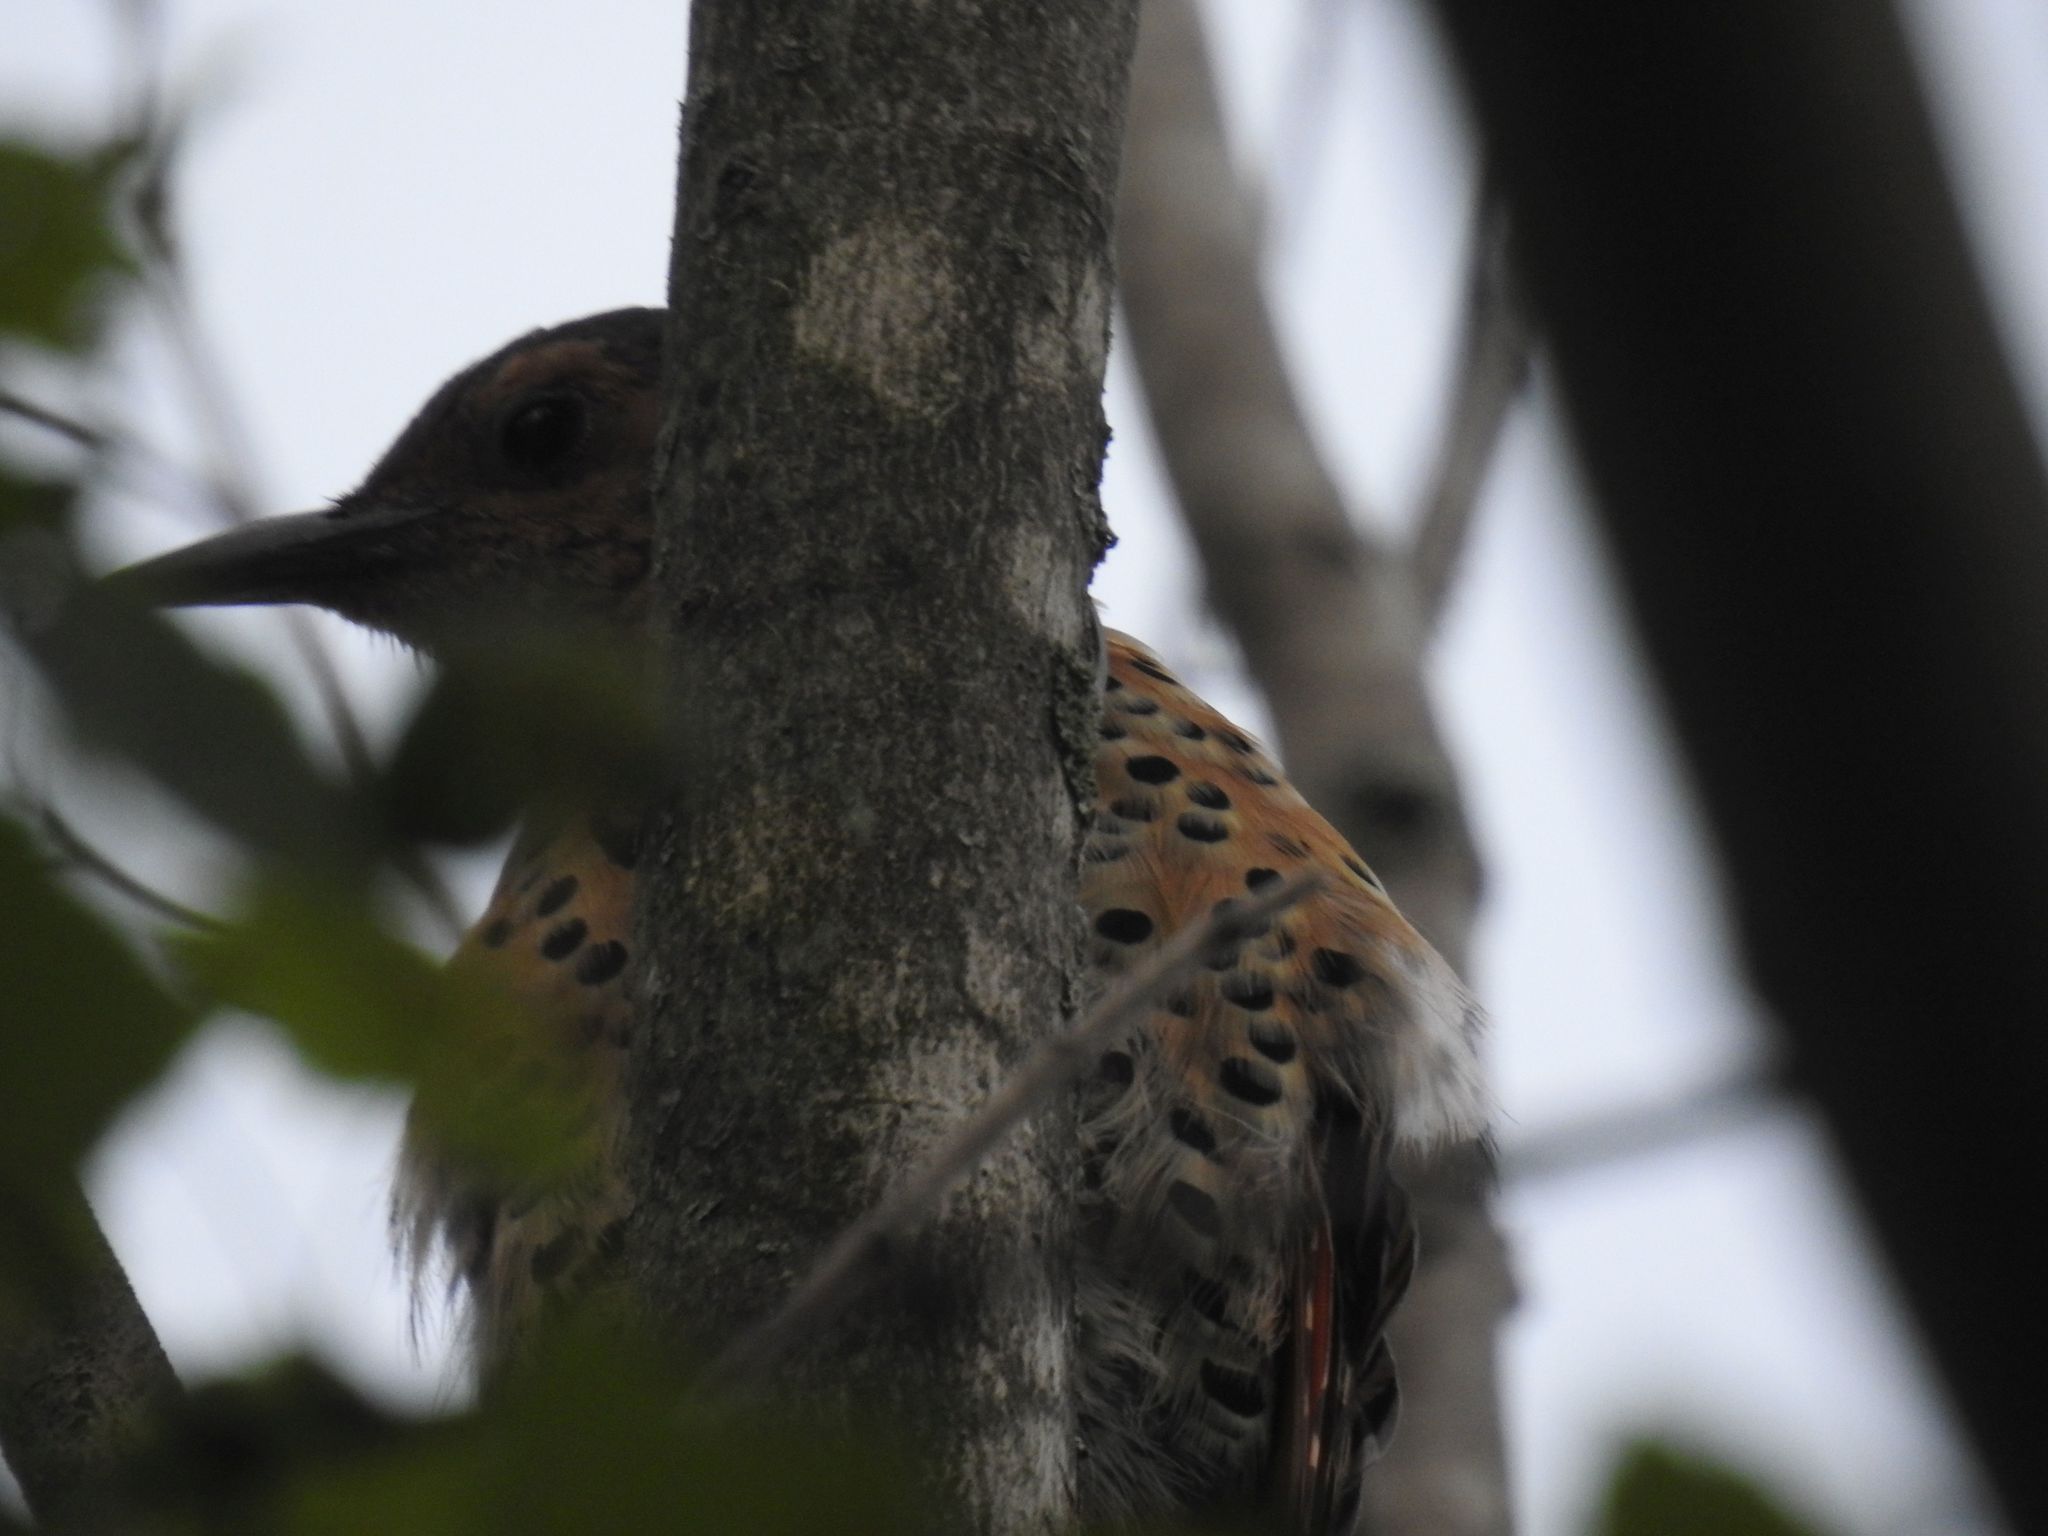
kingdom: Animalia
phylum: Chordata
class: Aves
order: Piciformes
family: Picidae
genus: Colaptes
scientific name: Colaptes auratus
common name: Northern flicker
